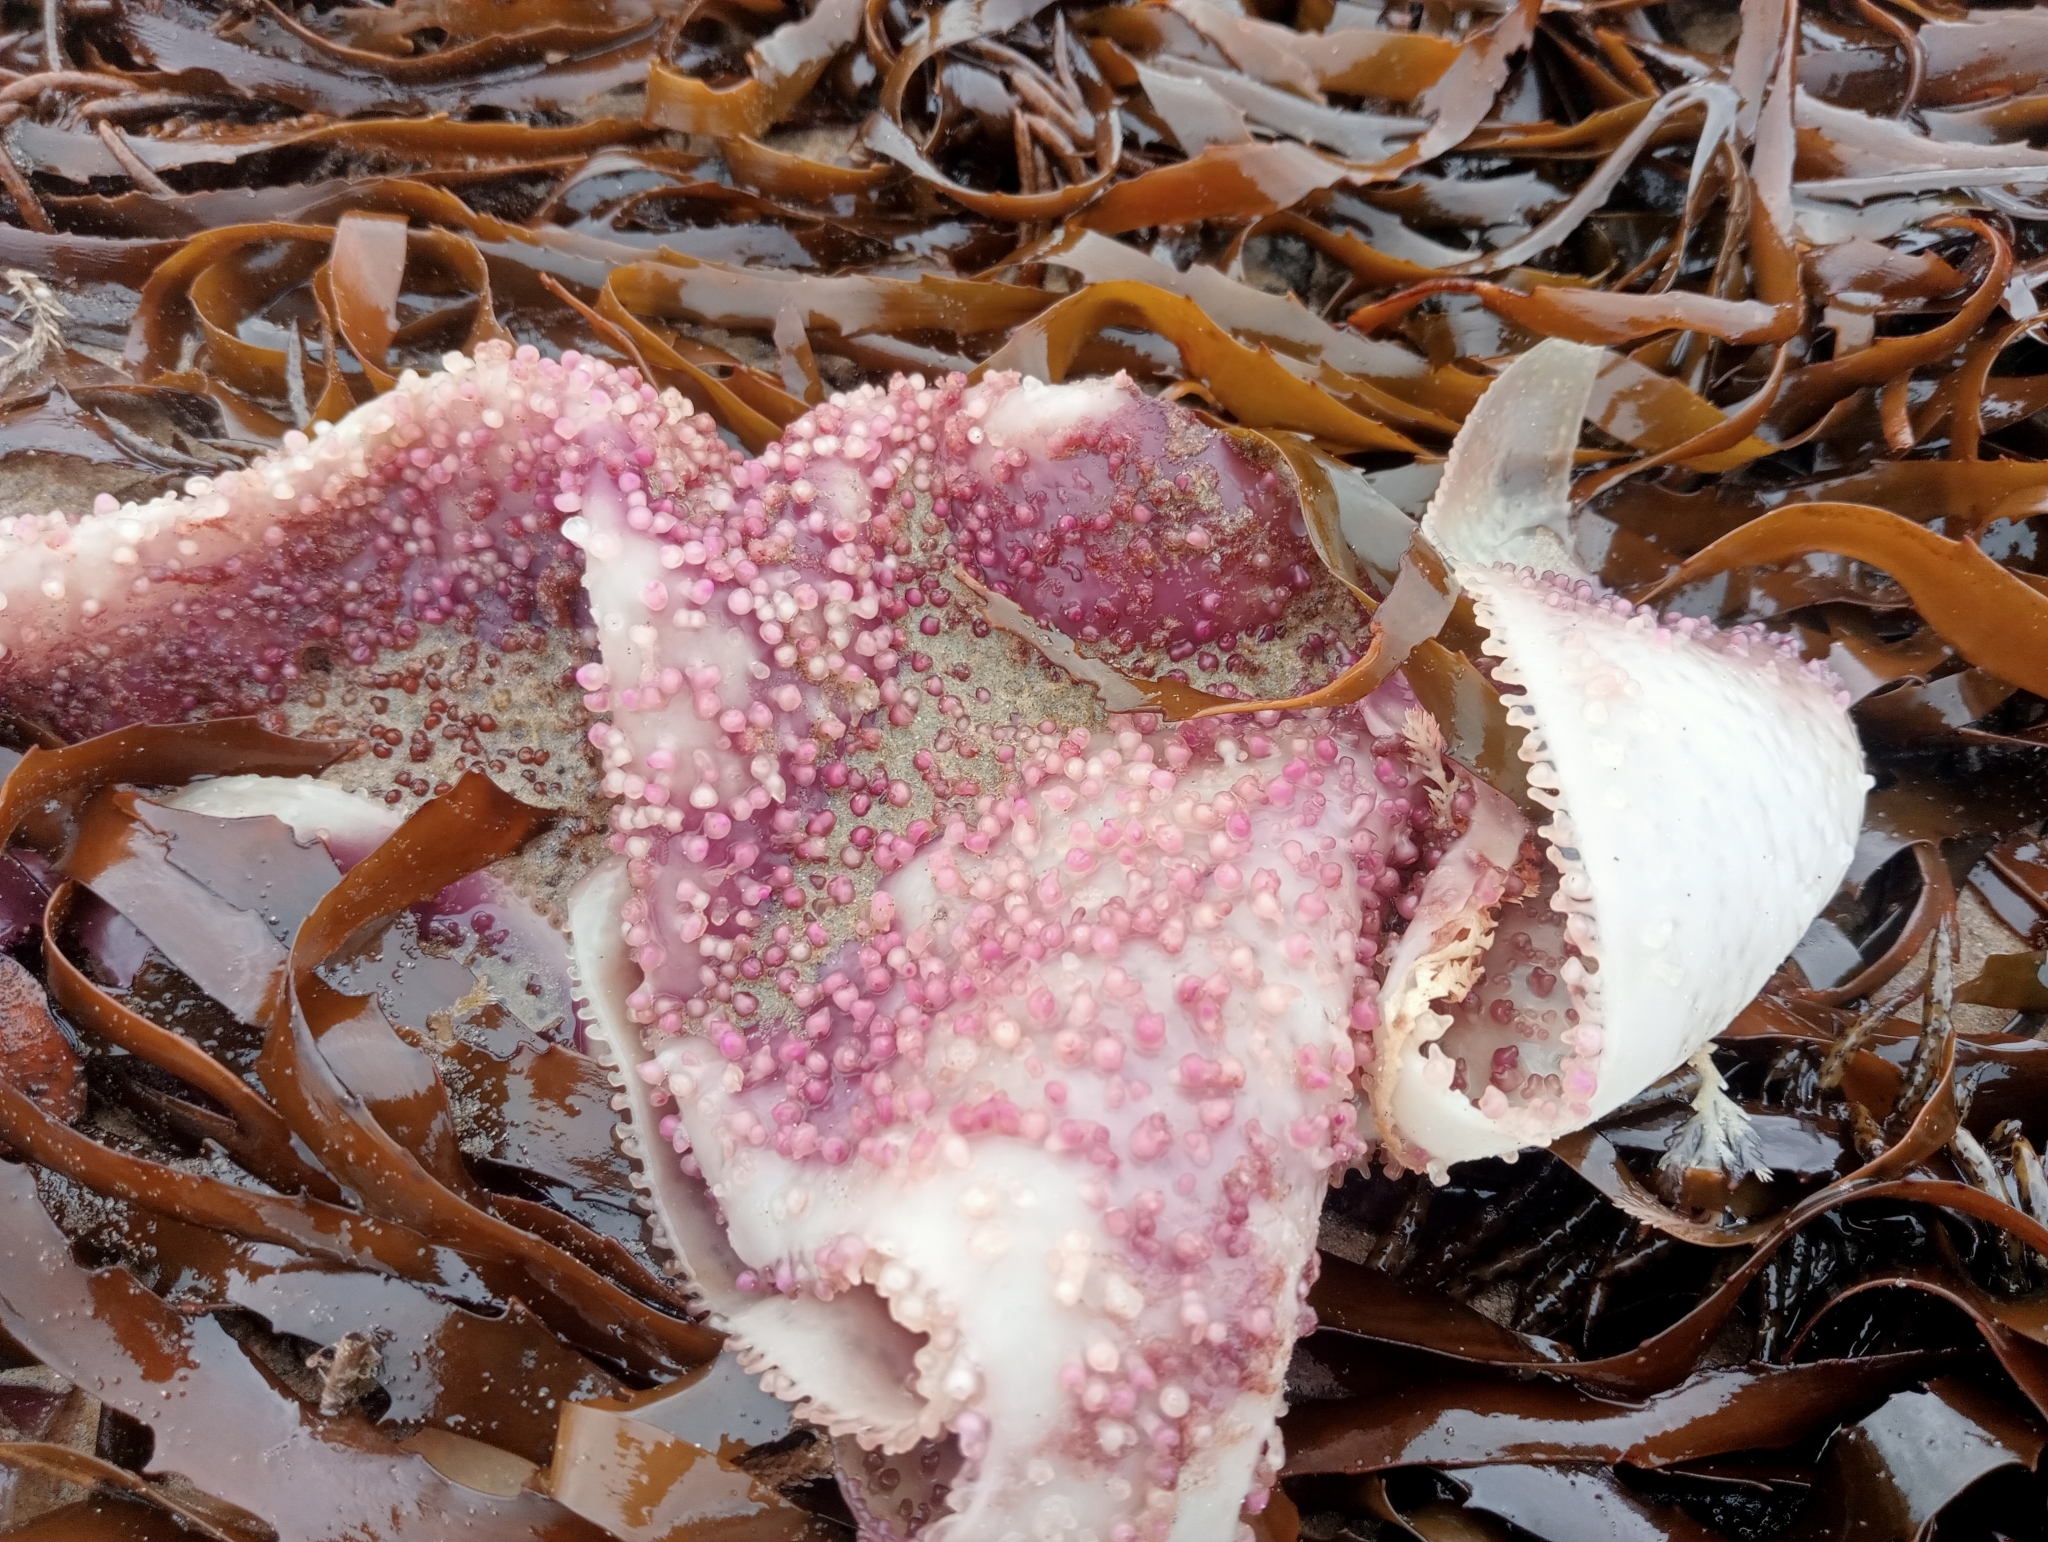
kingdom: Plantae
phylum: Rhodophyta
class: Florideophyceae
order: Gigartinales
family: Gigartinaceae
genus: Sarcothalia
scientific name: Sarcothalia circumcincta
